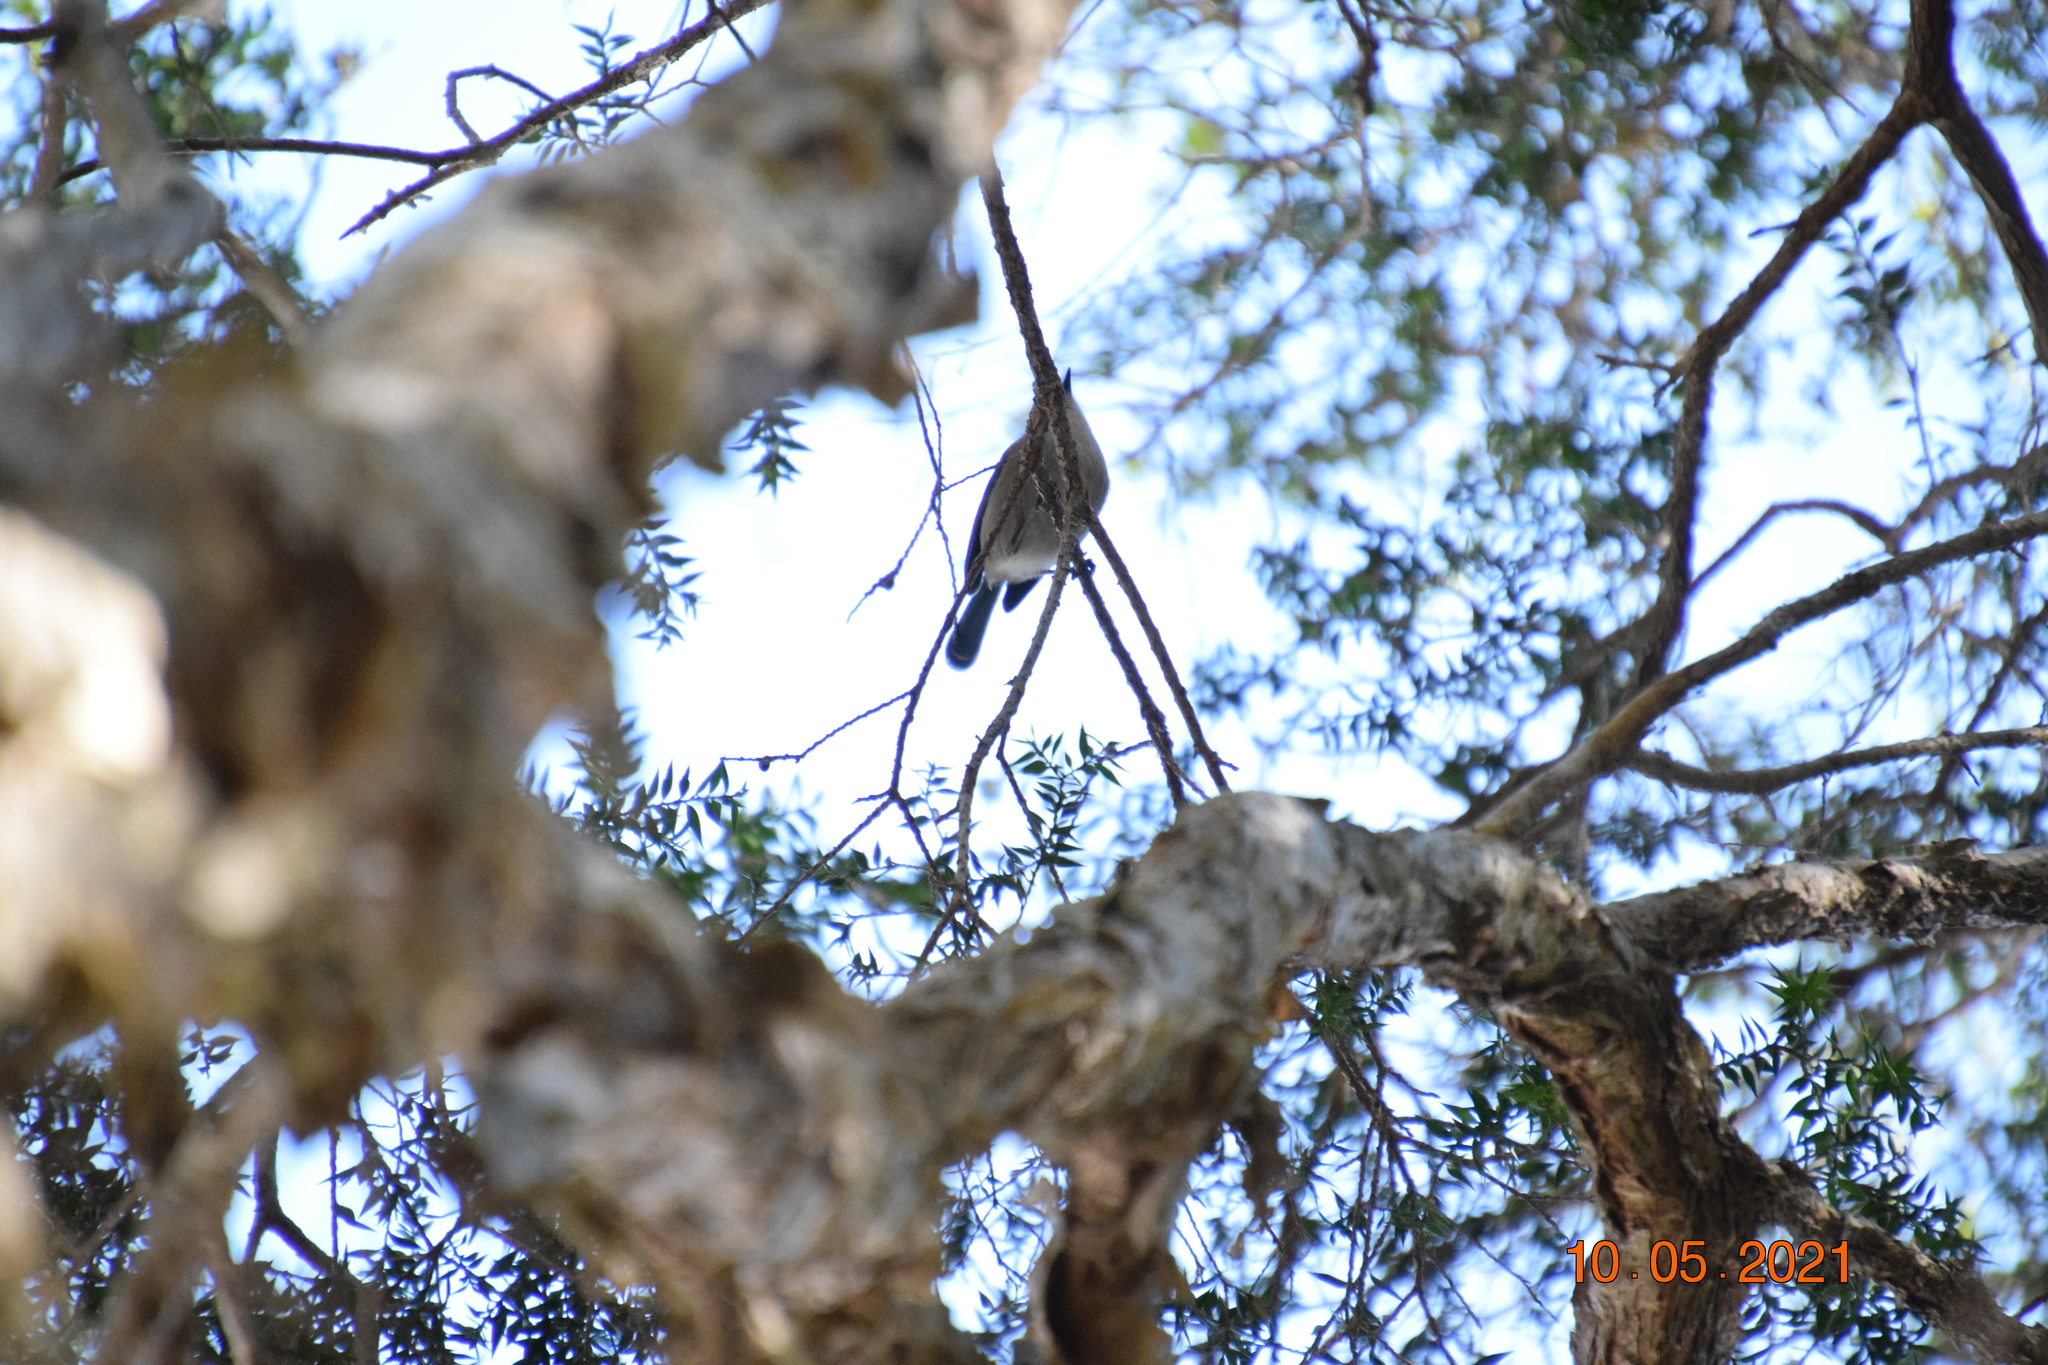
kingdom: Animalia
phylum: Chordata
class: Aves
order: Passeriformes
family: Maluridae
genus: Malurus
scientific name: Malurus cyaneus
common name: Superb fairywren
